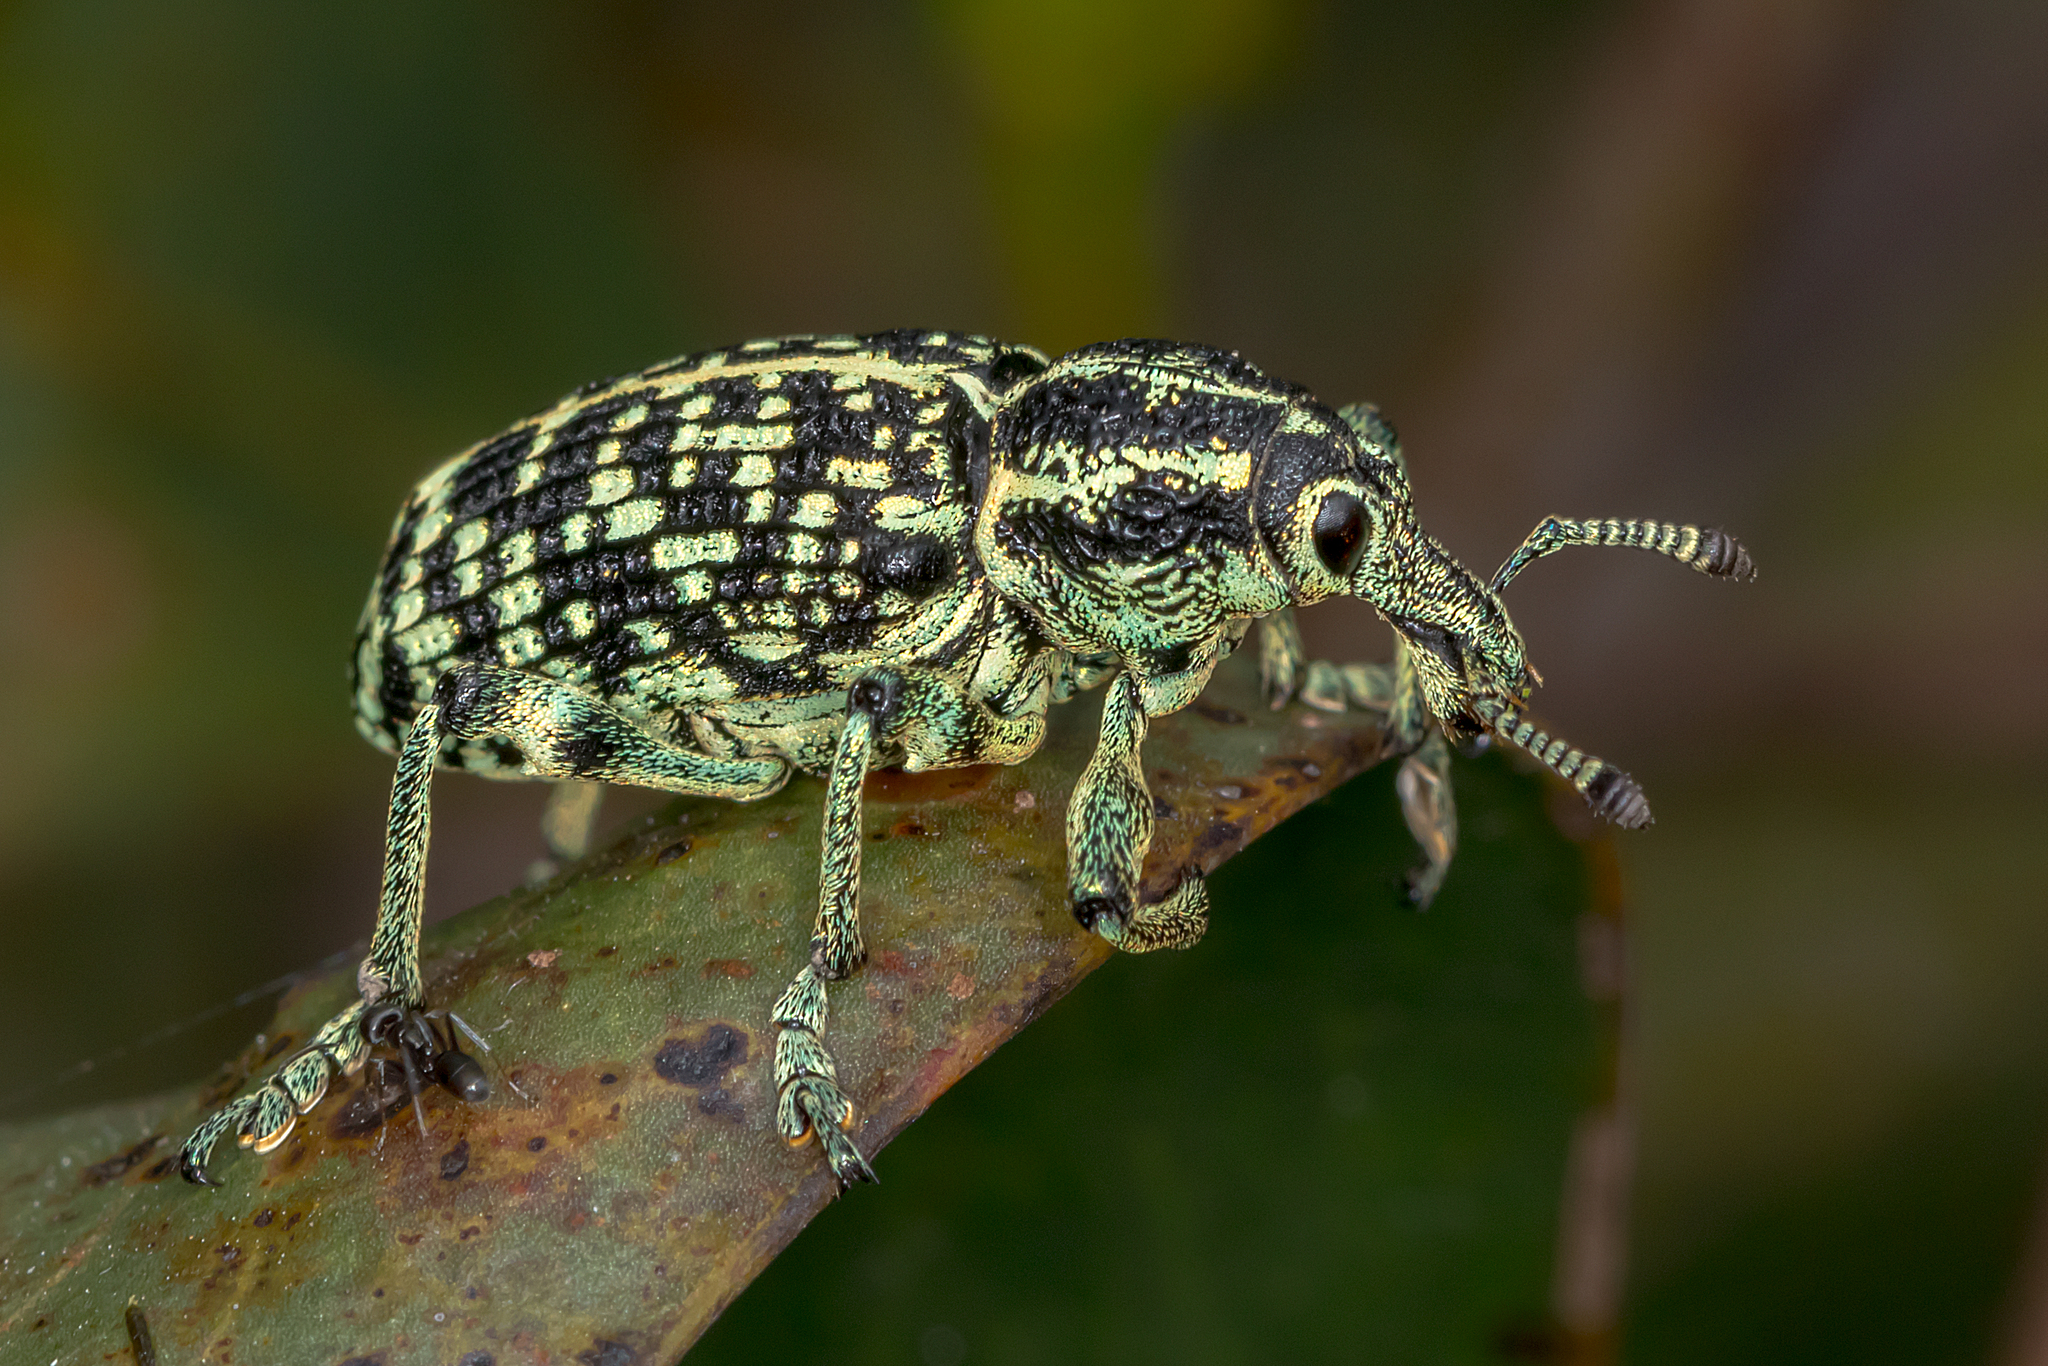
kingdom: Animalia
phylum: Arthropoda
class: Insecta
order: Coleoptera
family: Curculionidae
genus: Chrysolopus
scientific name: Chrysolopus spectabilis
